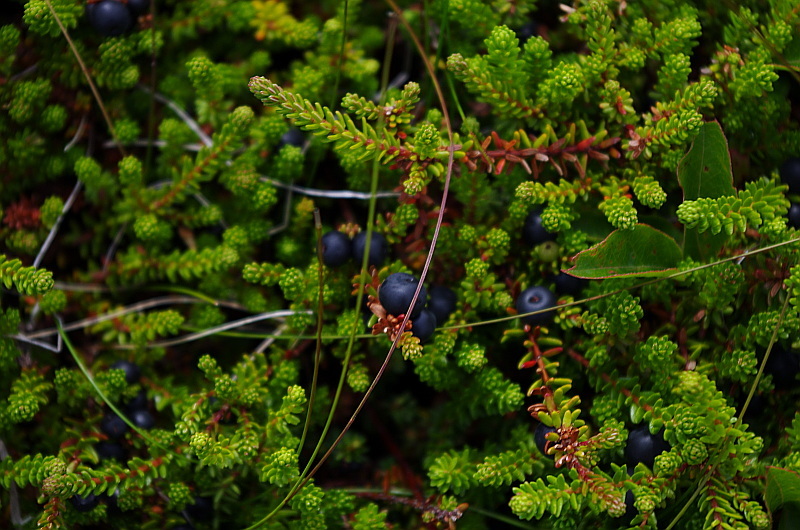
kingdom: Plantae
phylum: Tracheophyta
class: Magnoliopsida
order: Ericales
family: Ericaceae
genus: Empetrum
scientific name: Empetrum nigrum
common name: Black crowberry
